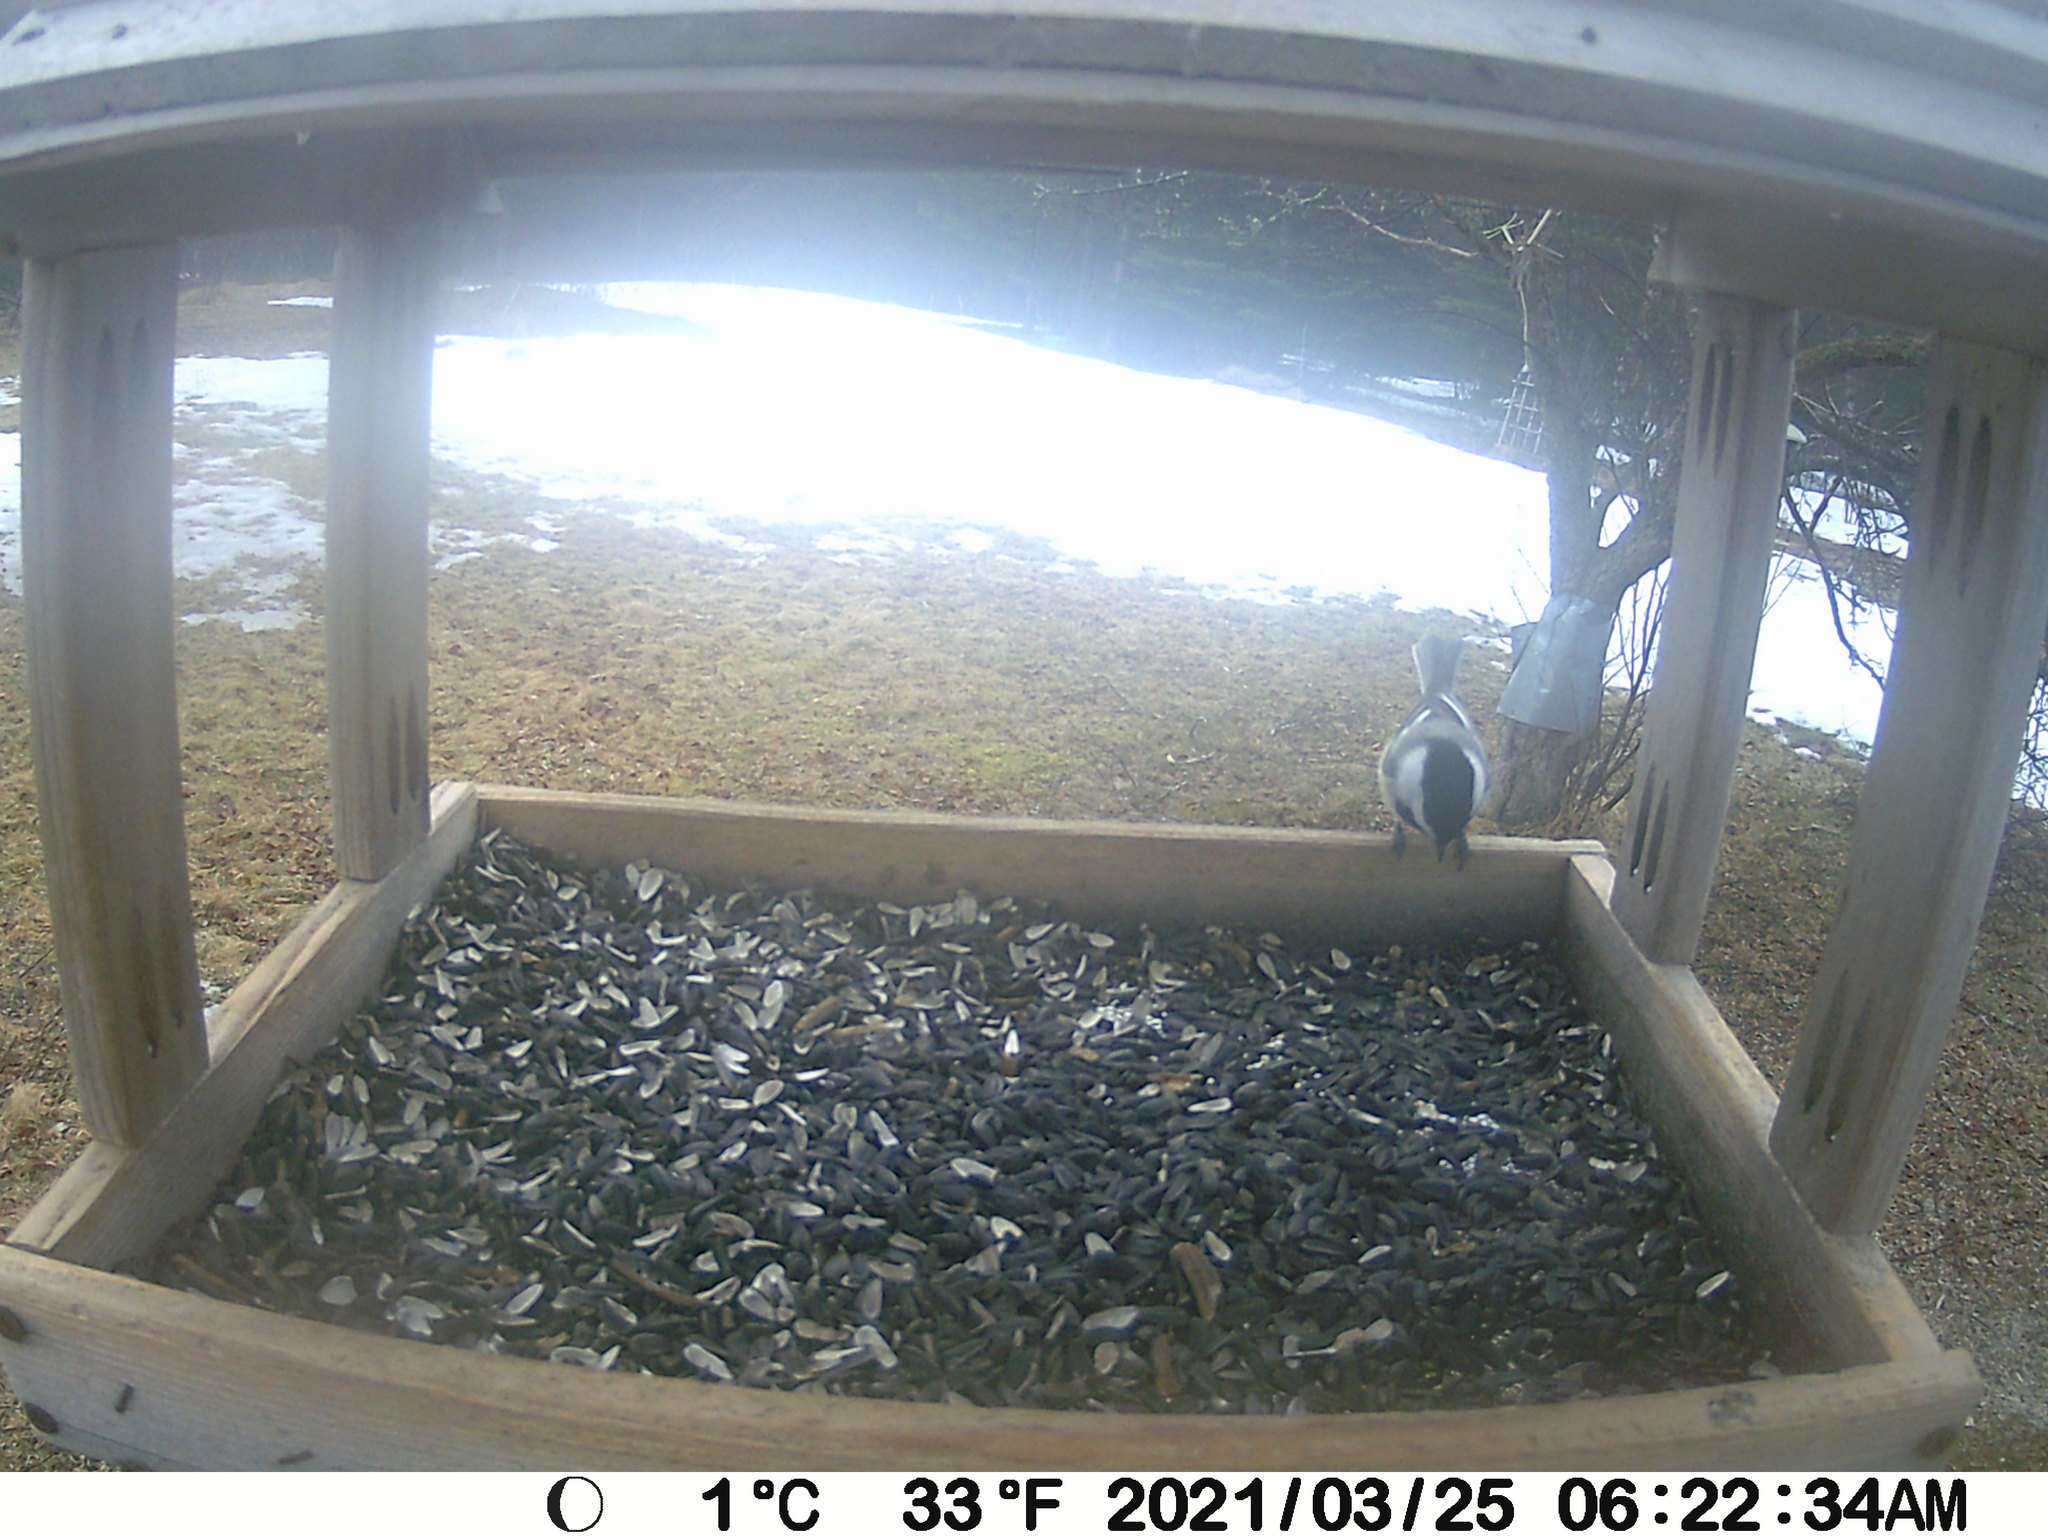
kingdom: Animalia
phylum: Chordata
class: Aves
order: Passeriformes
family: Paridae
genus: Poecile
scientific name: Poecile atricapillus
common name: Black-capped chickadee
